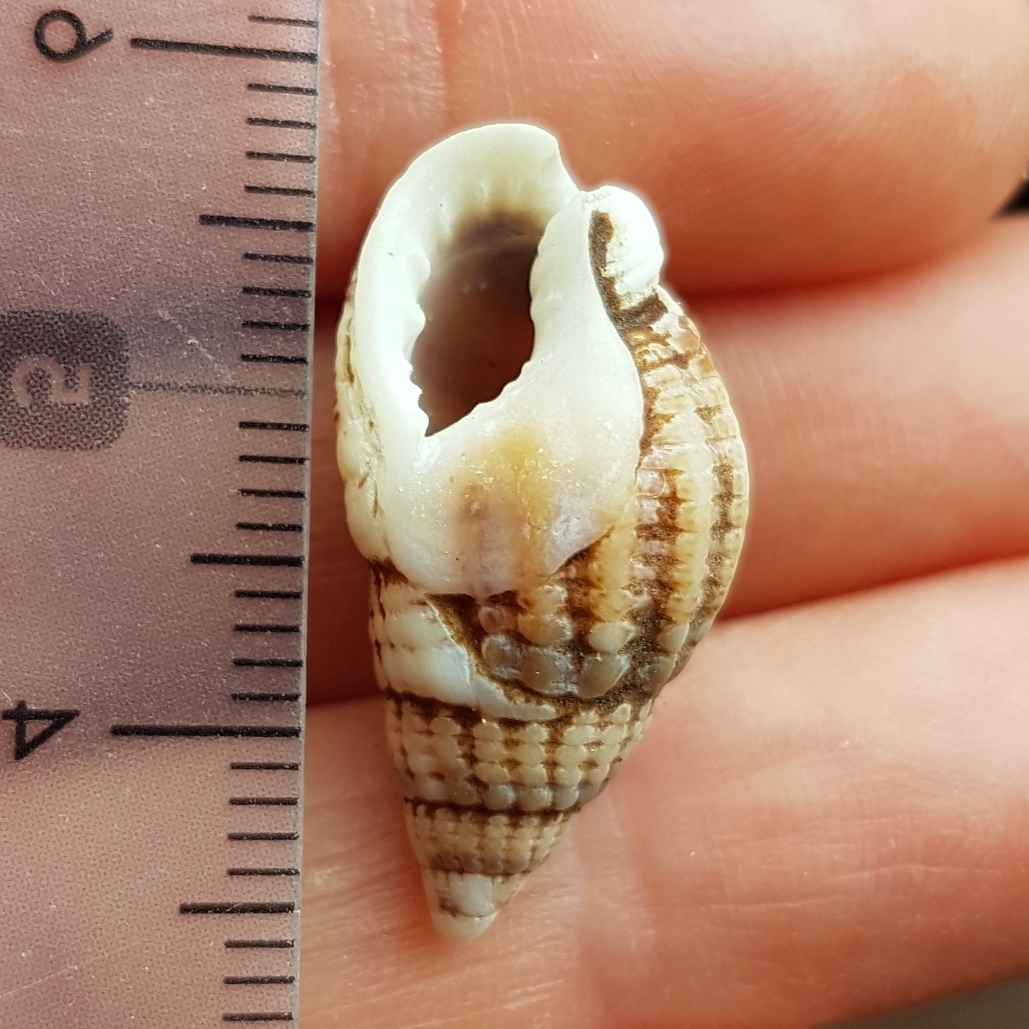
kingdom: Animalia
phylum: Mollusca
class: Gastropoda
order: Neogastropoda
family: Nassariidae
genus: Tritia
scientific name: Tritia reticulata
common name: Netted dog whelk
